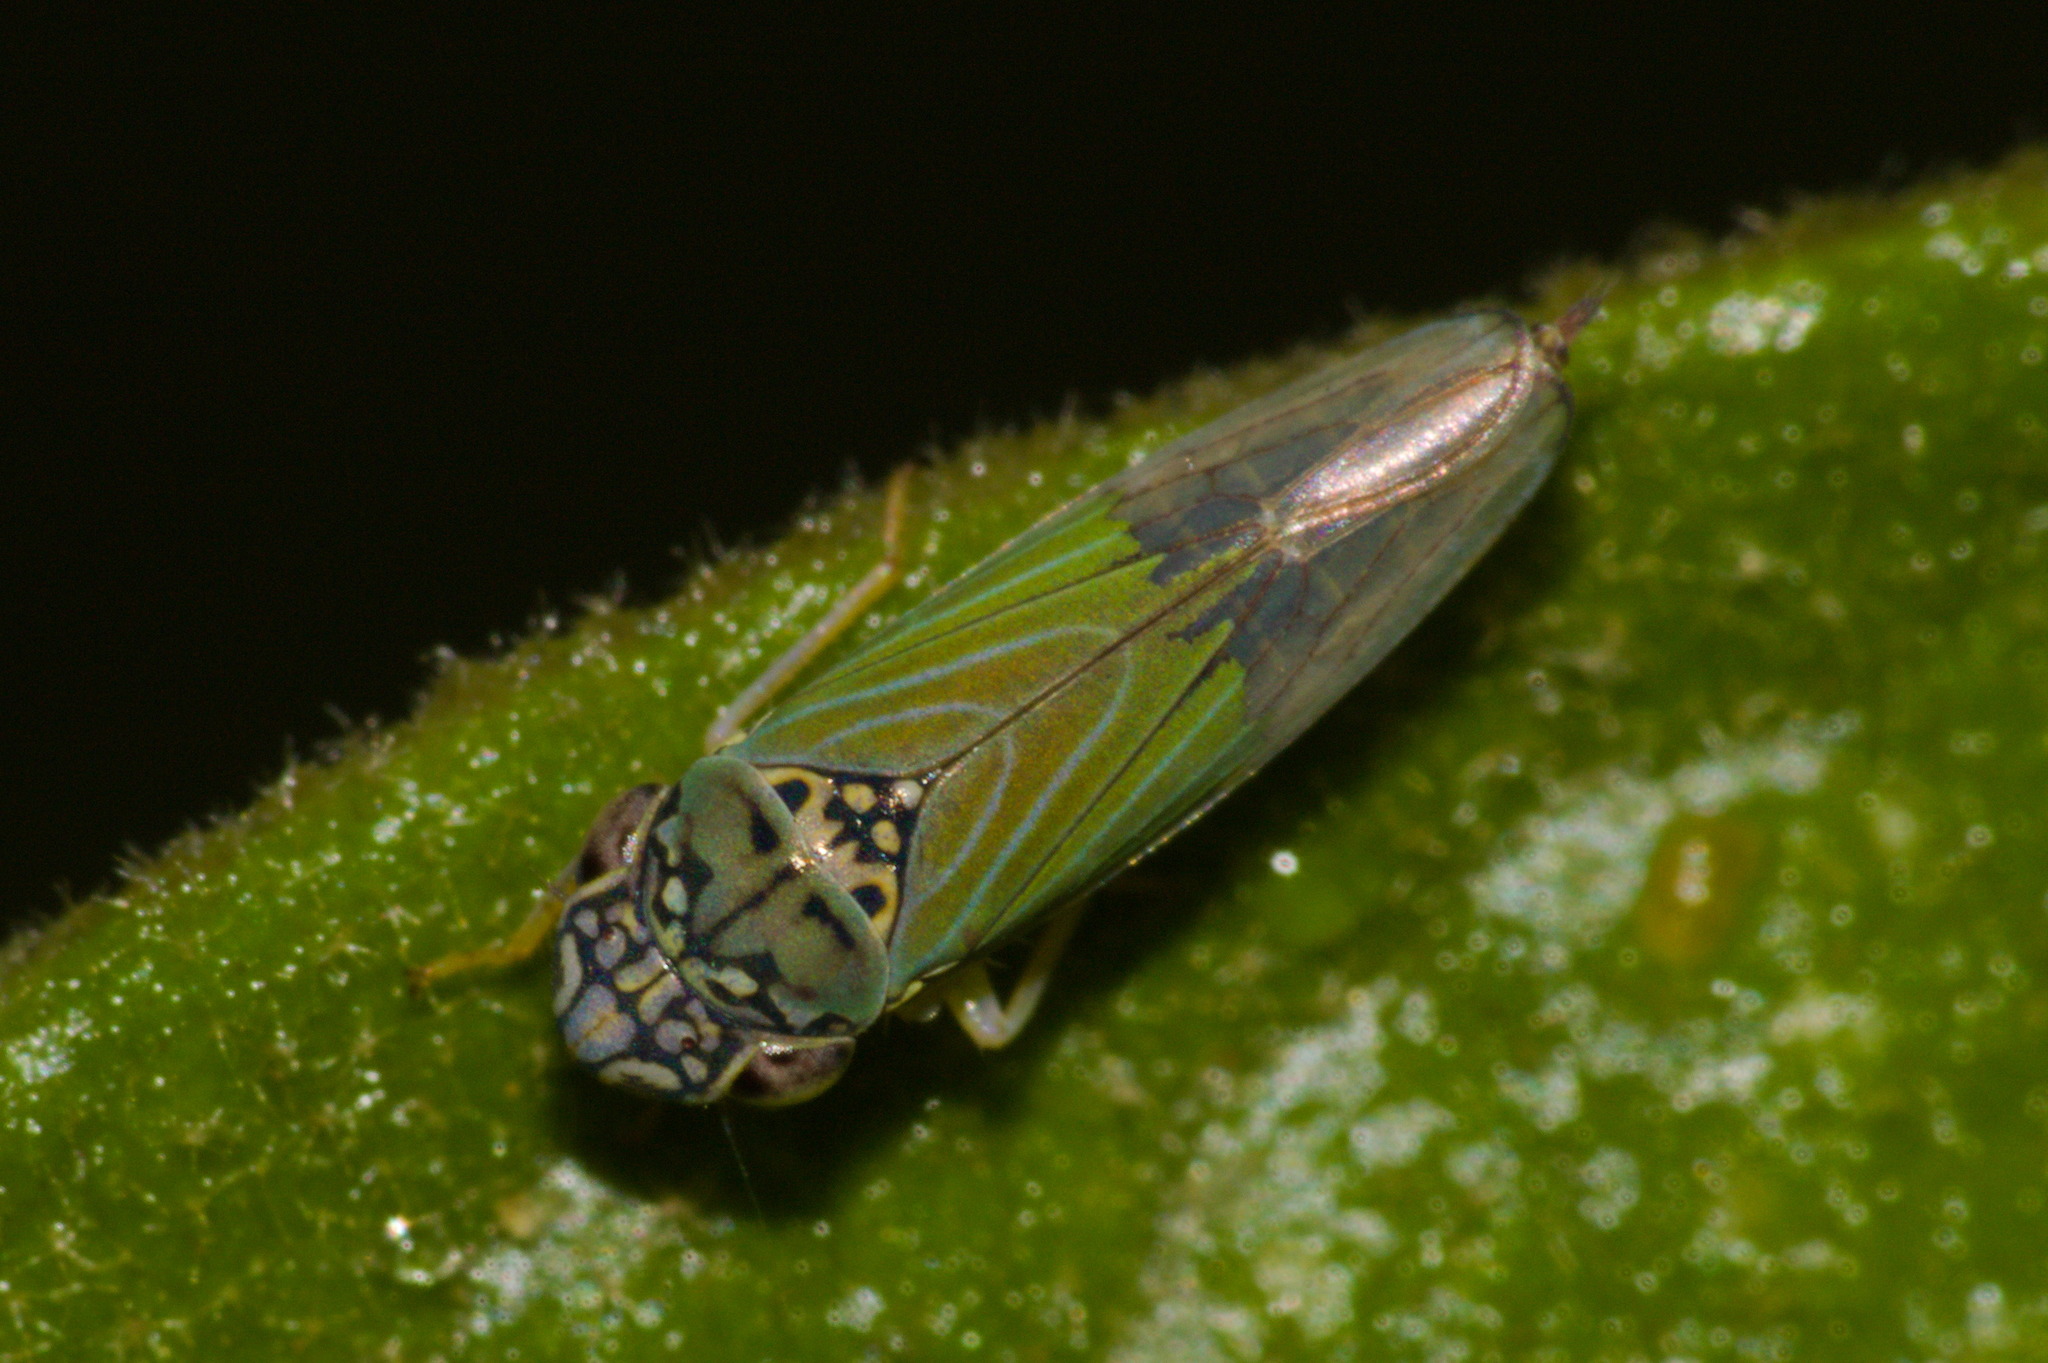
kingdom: Animalia
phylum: Arthropoda
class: Insecta
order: Hemiptera
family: Cicadellidae
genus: Bucephalogonia
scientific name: Bucephalogonia xanthophis
